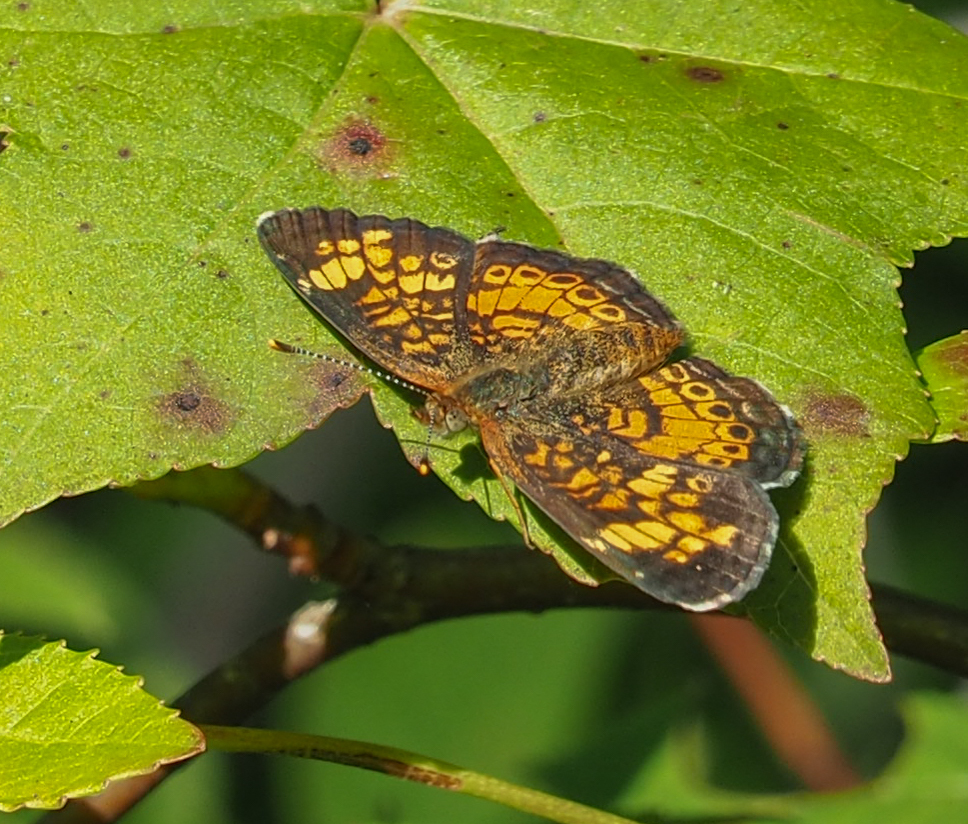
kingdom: Animalia
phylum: Arthropoda
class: Insecta
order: Lepidoptera
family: Nymphalidae
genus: Phyciodes
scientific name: Phyciodes tharos
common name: Pearl crescent
